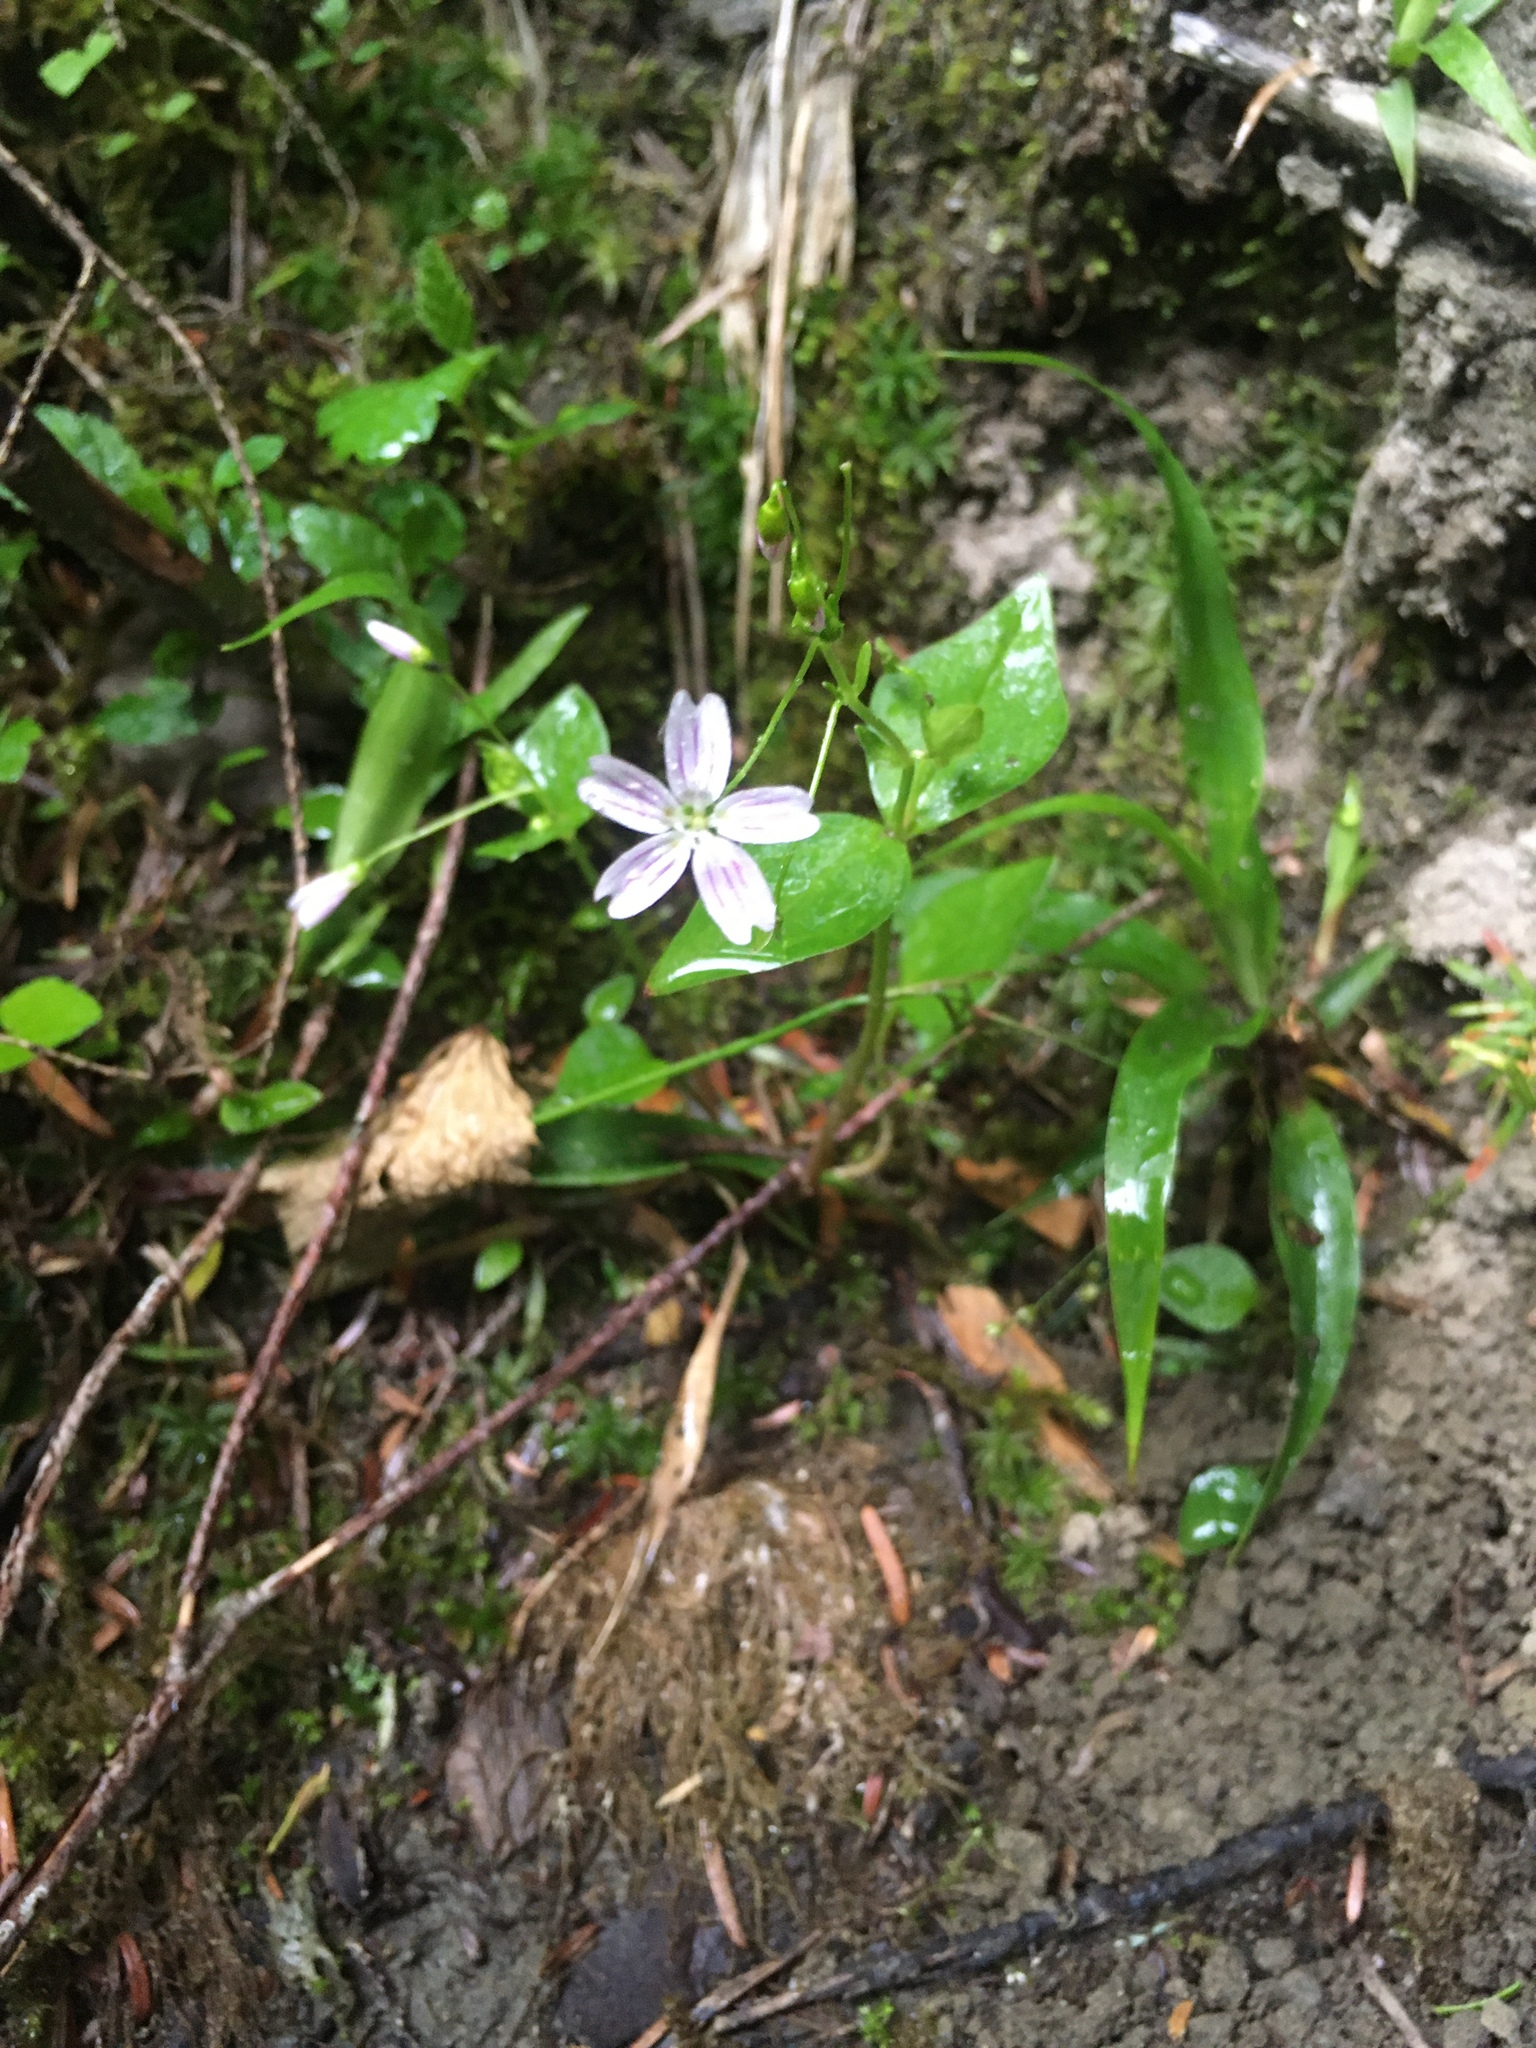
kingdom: Plantae
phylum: Tracheophyta
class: Magnoliopsida
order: Caryophyllales
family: Montiaceae
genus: Claytonia
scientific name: Claytonia sibirica
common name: Pink purslane
